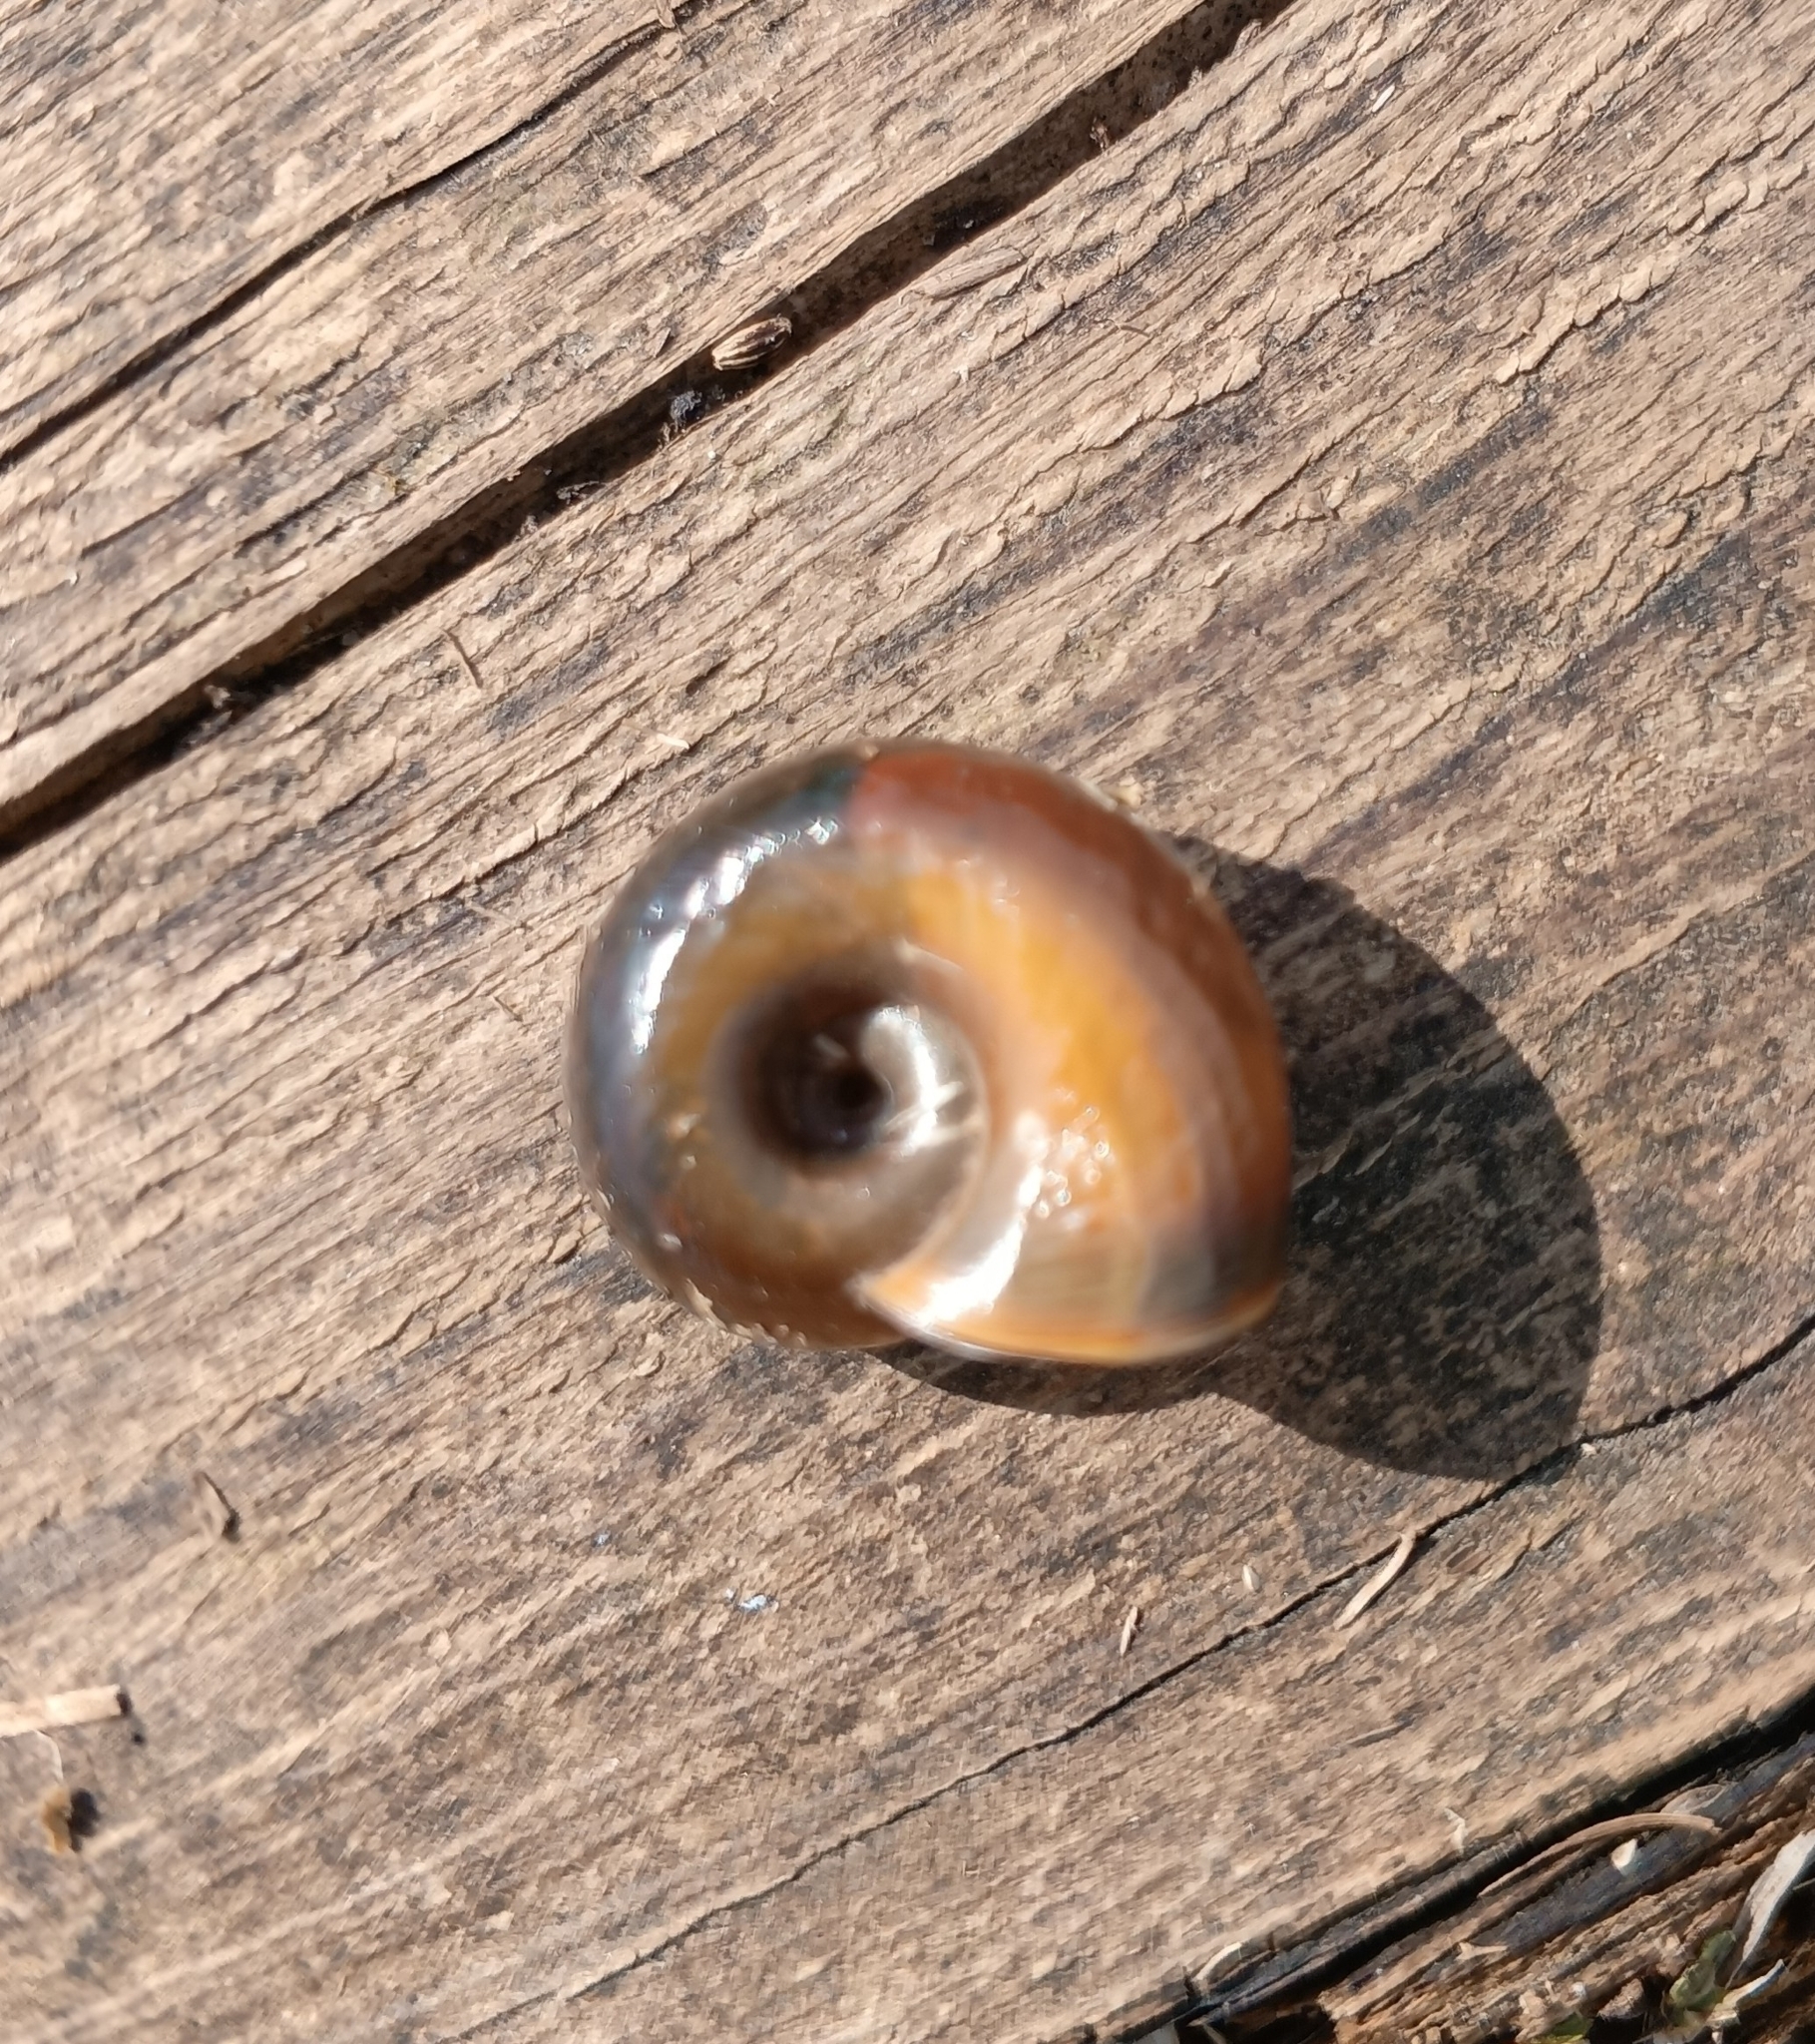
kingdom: Animalia
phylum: Mollusca
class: Gastropoda
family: Planorbidae
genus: Planorbarius
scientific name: Planorbarius corneus
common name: Great ramshorn
